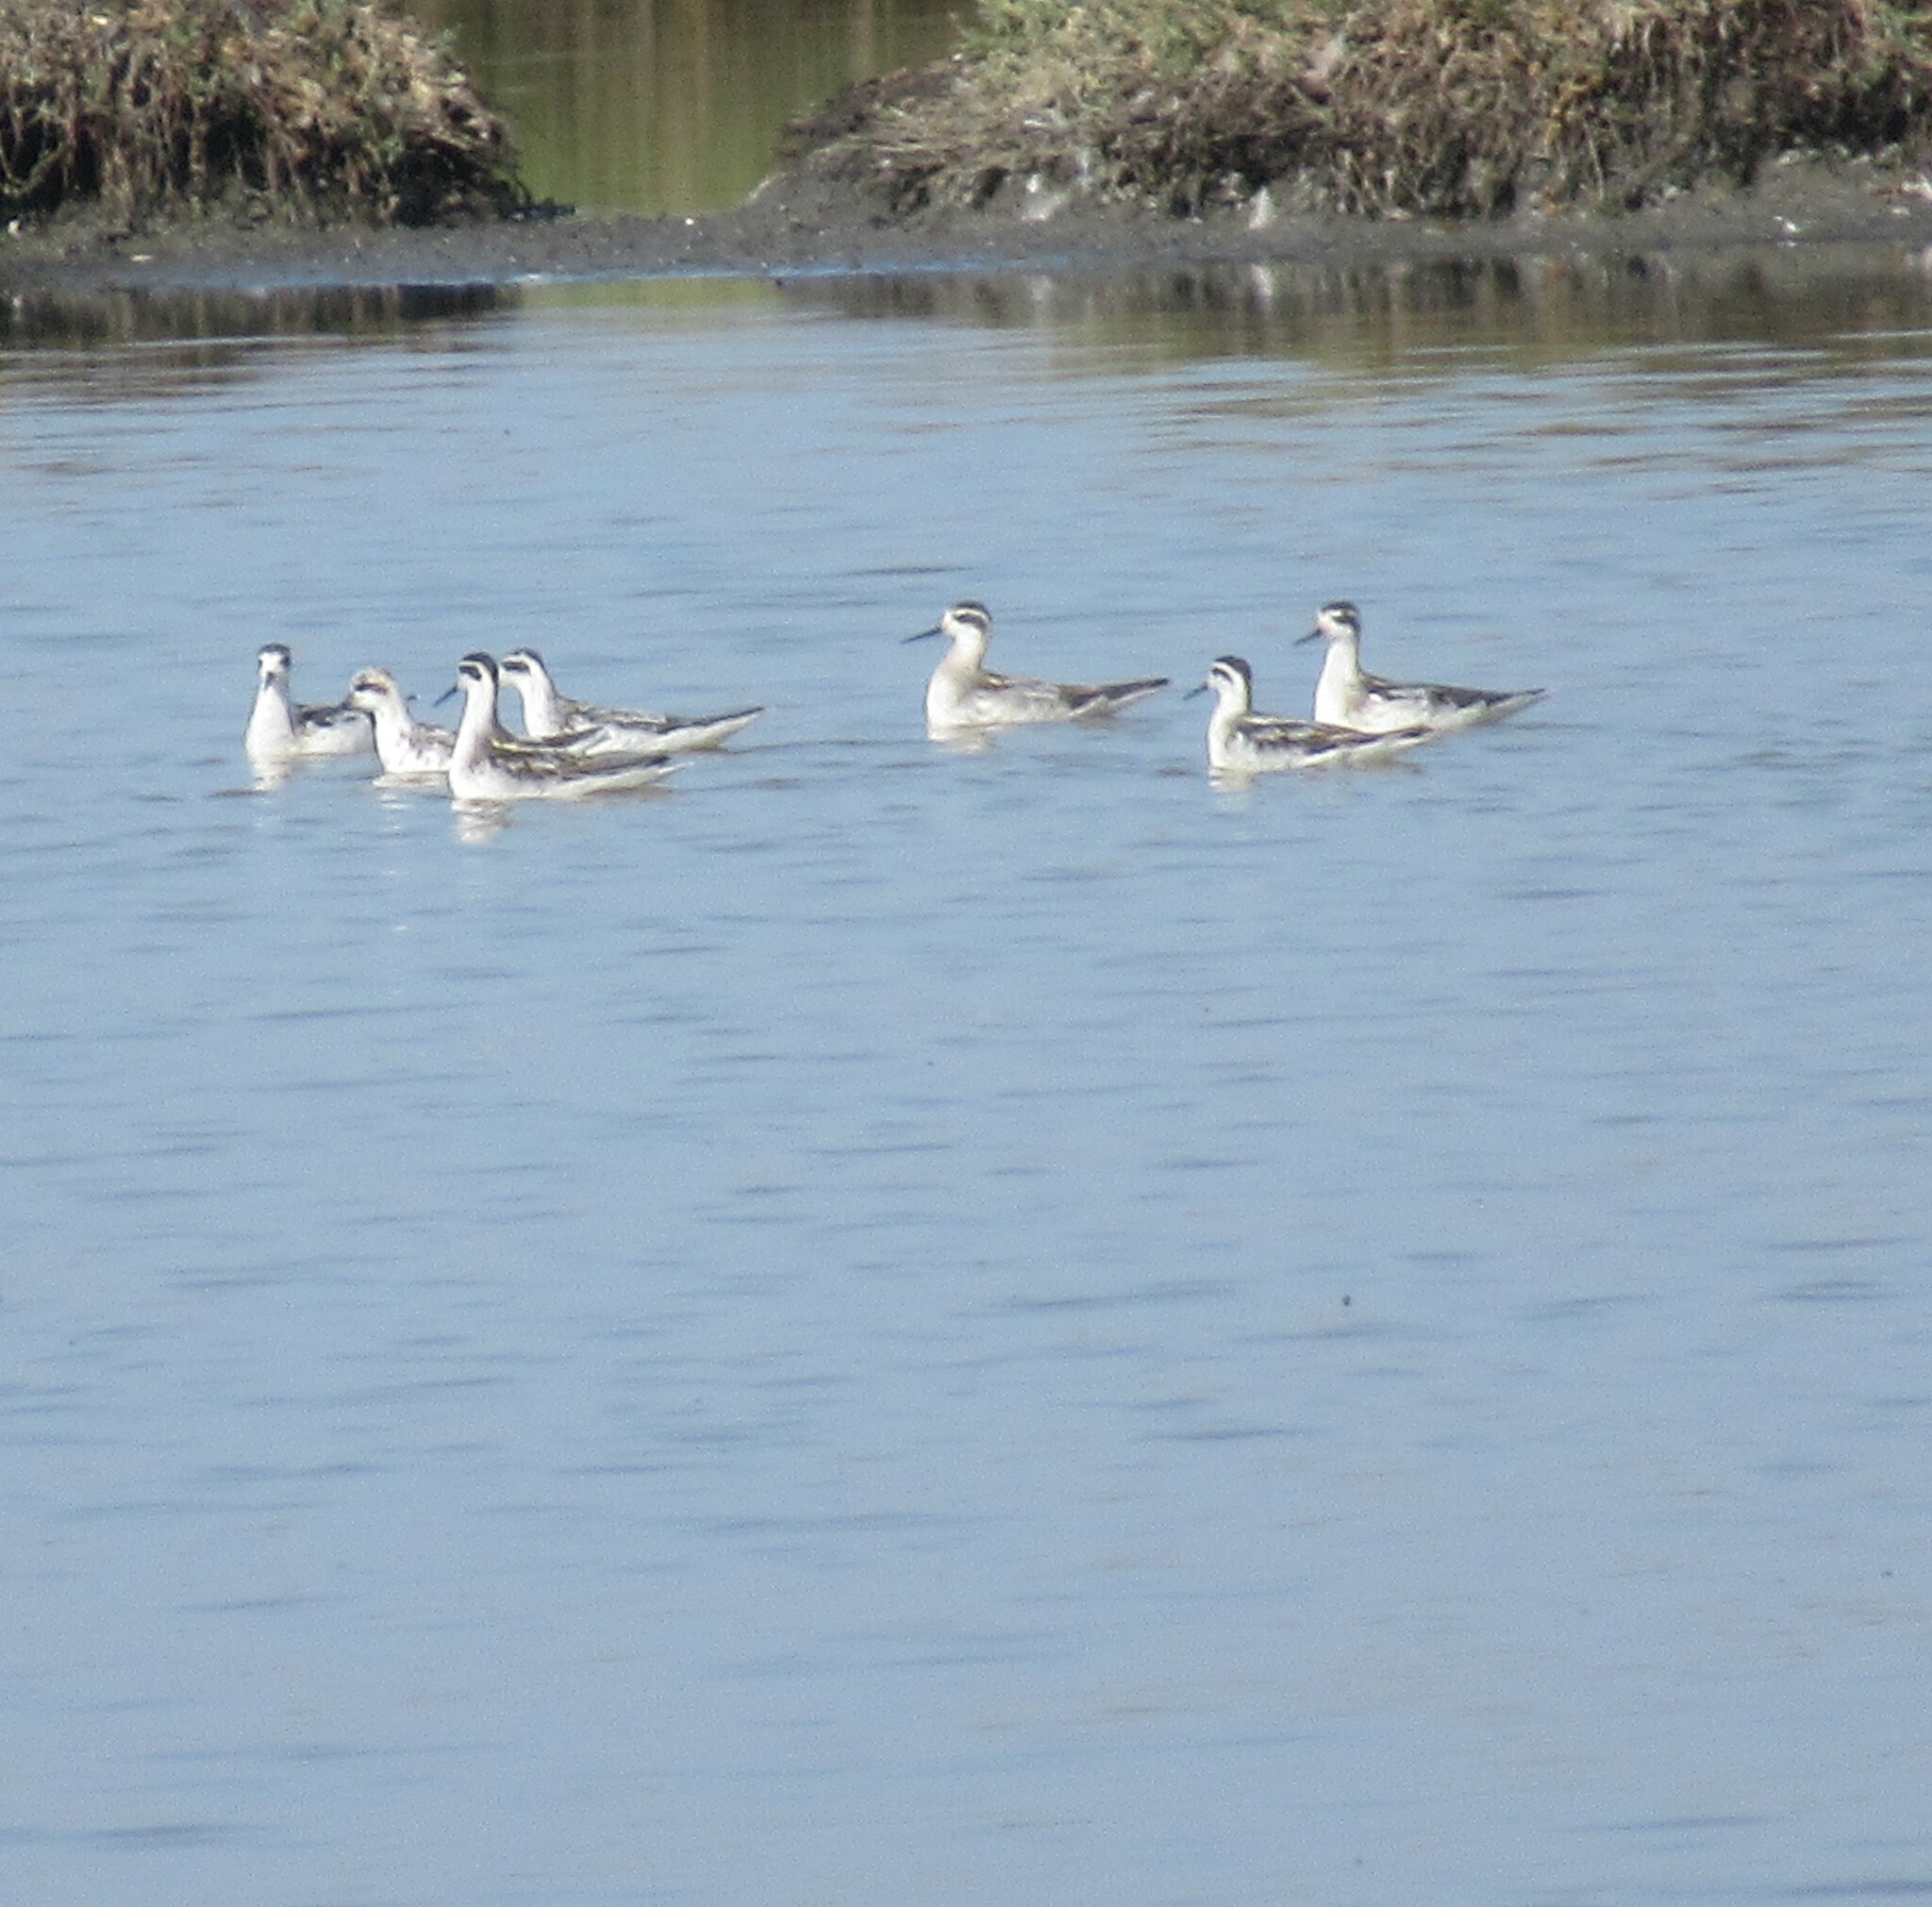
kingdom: Animalia
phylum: Chordata
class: Aves
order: Charadriiformes
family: Scolopacidae
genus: Phalaropus
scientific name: Phalaropus lobatus
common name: Red-necked phalarope
